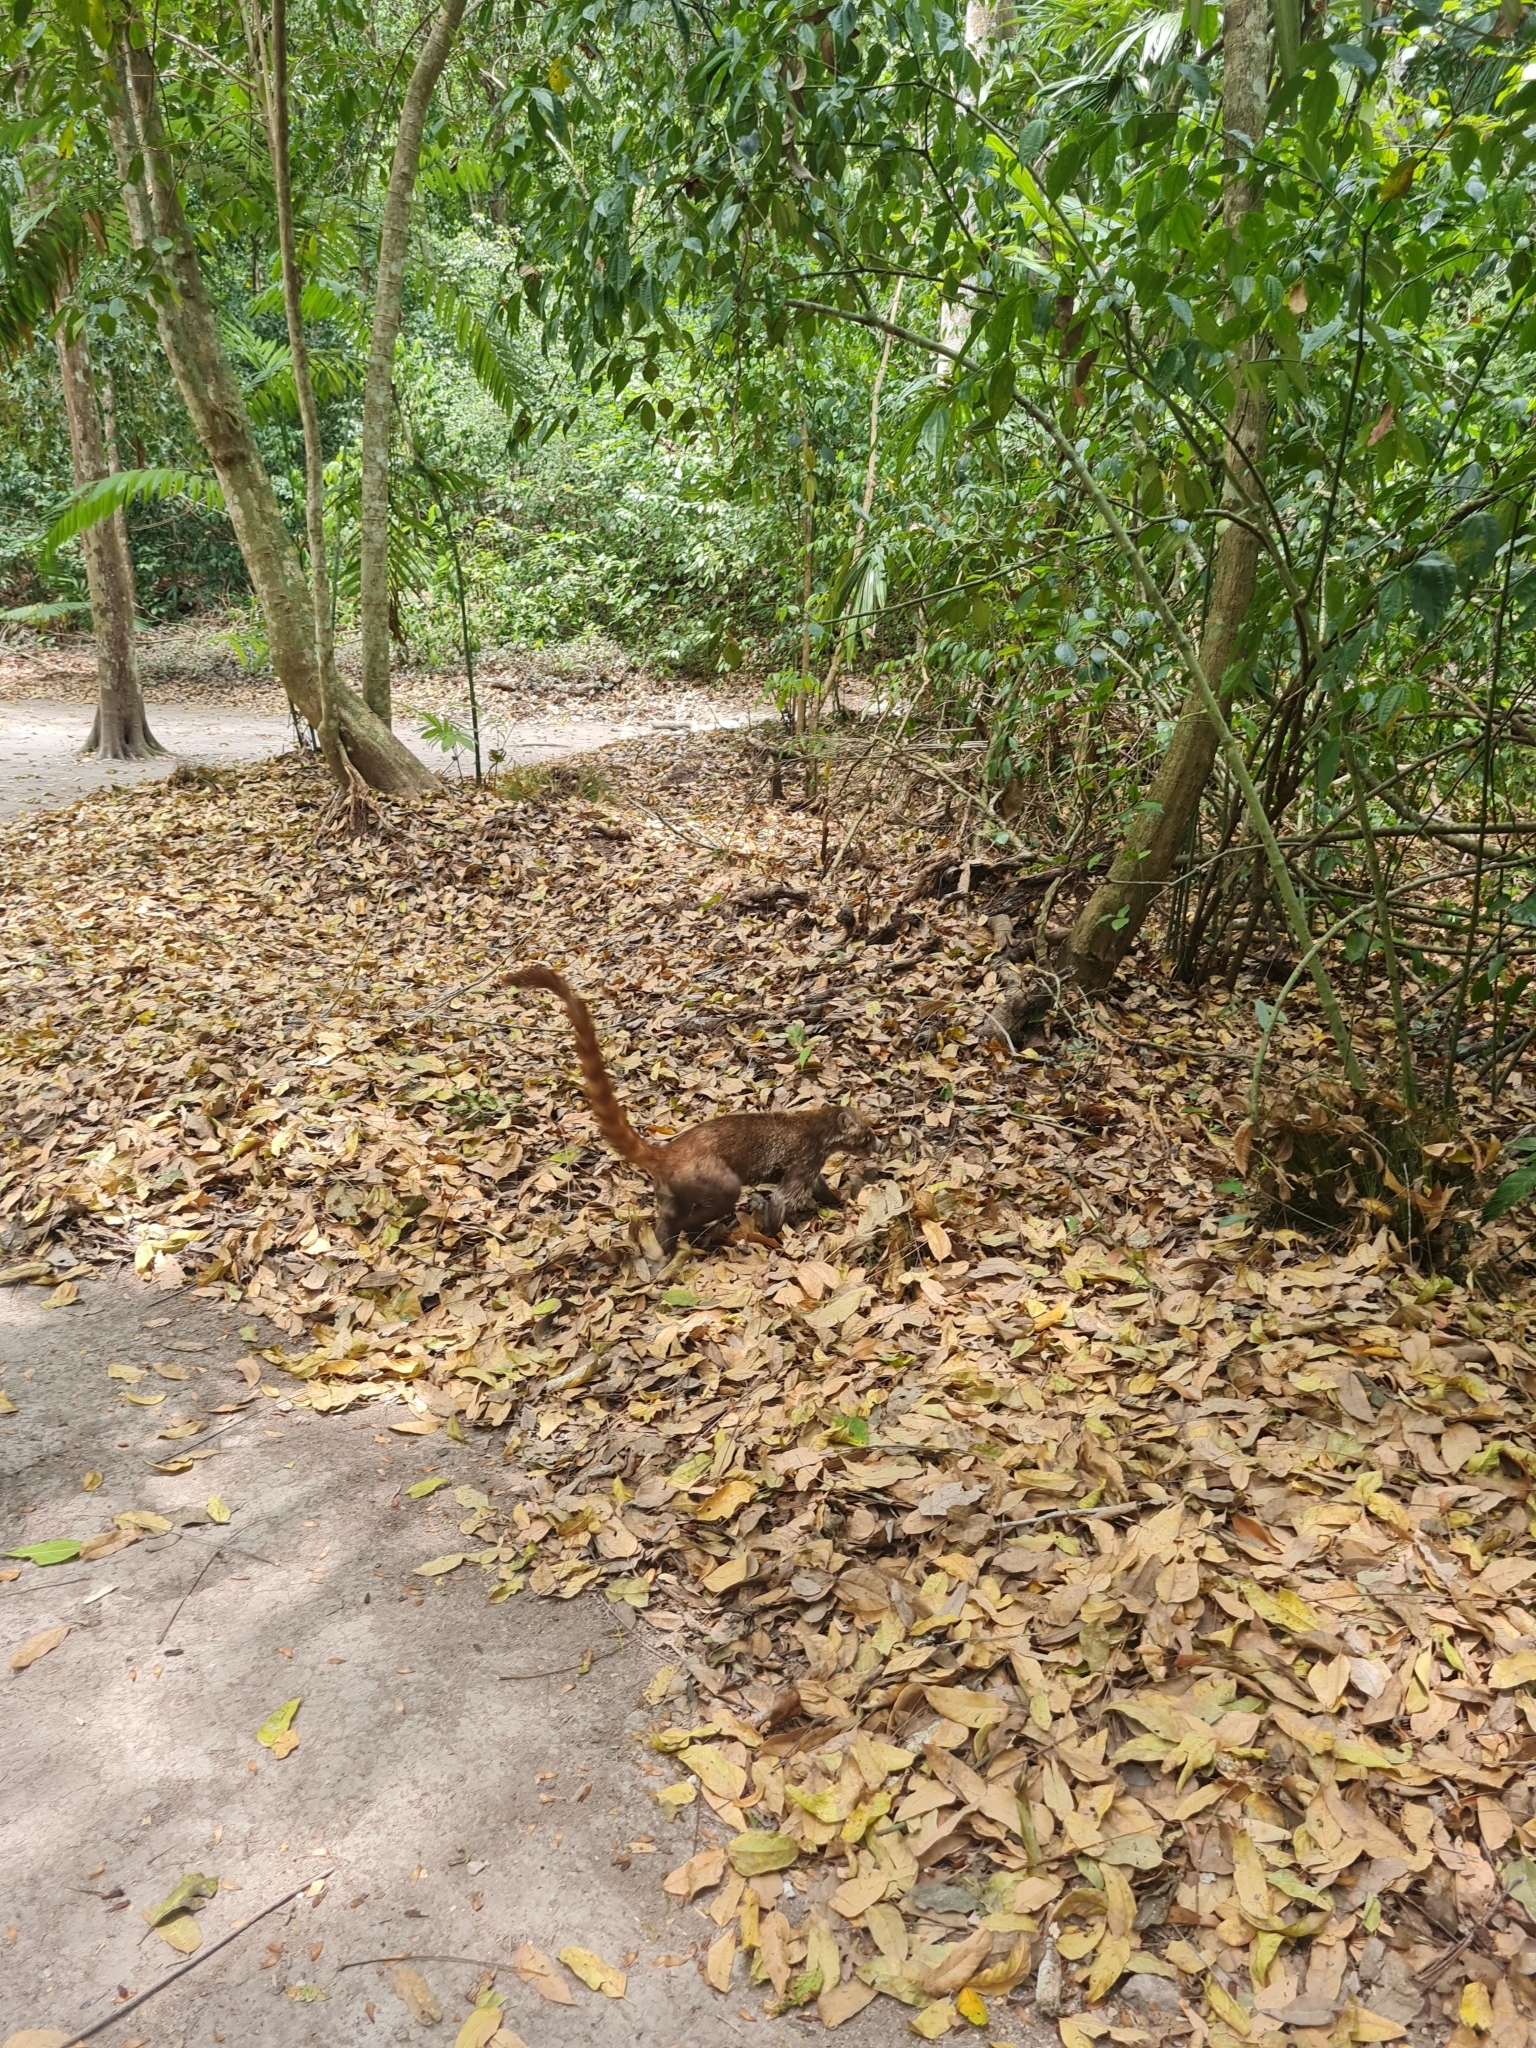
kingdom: Animalia
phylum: Chordata
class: Mammalia
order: Carnivora
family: Procyonidae
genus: Nasua
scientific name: Nasua narica
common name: White-nosed coati
